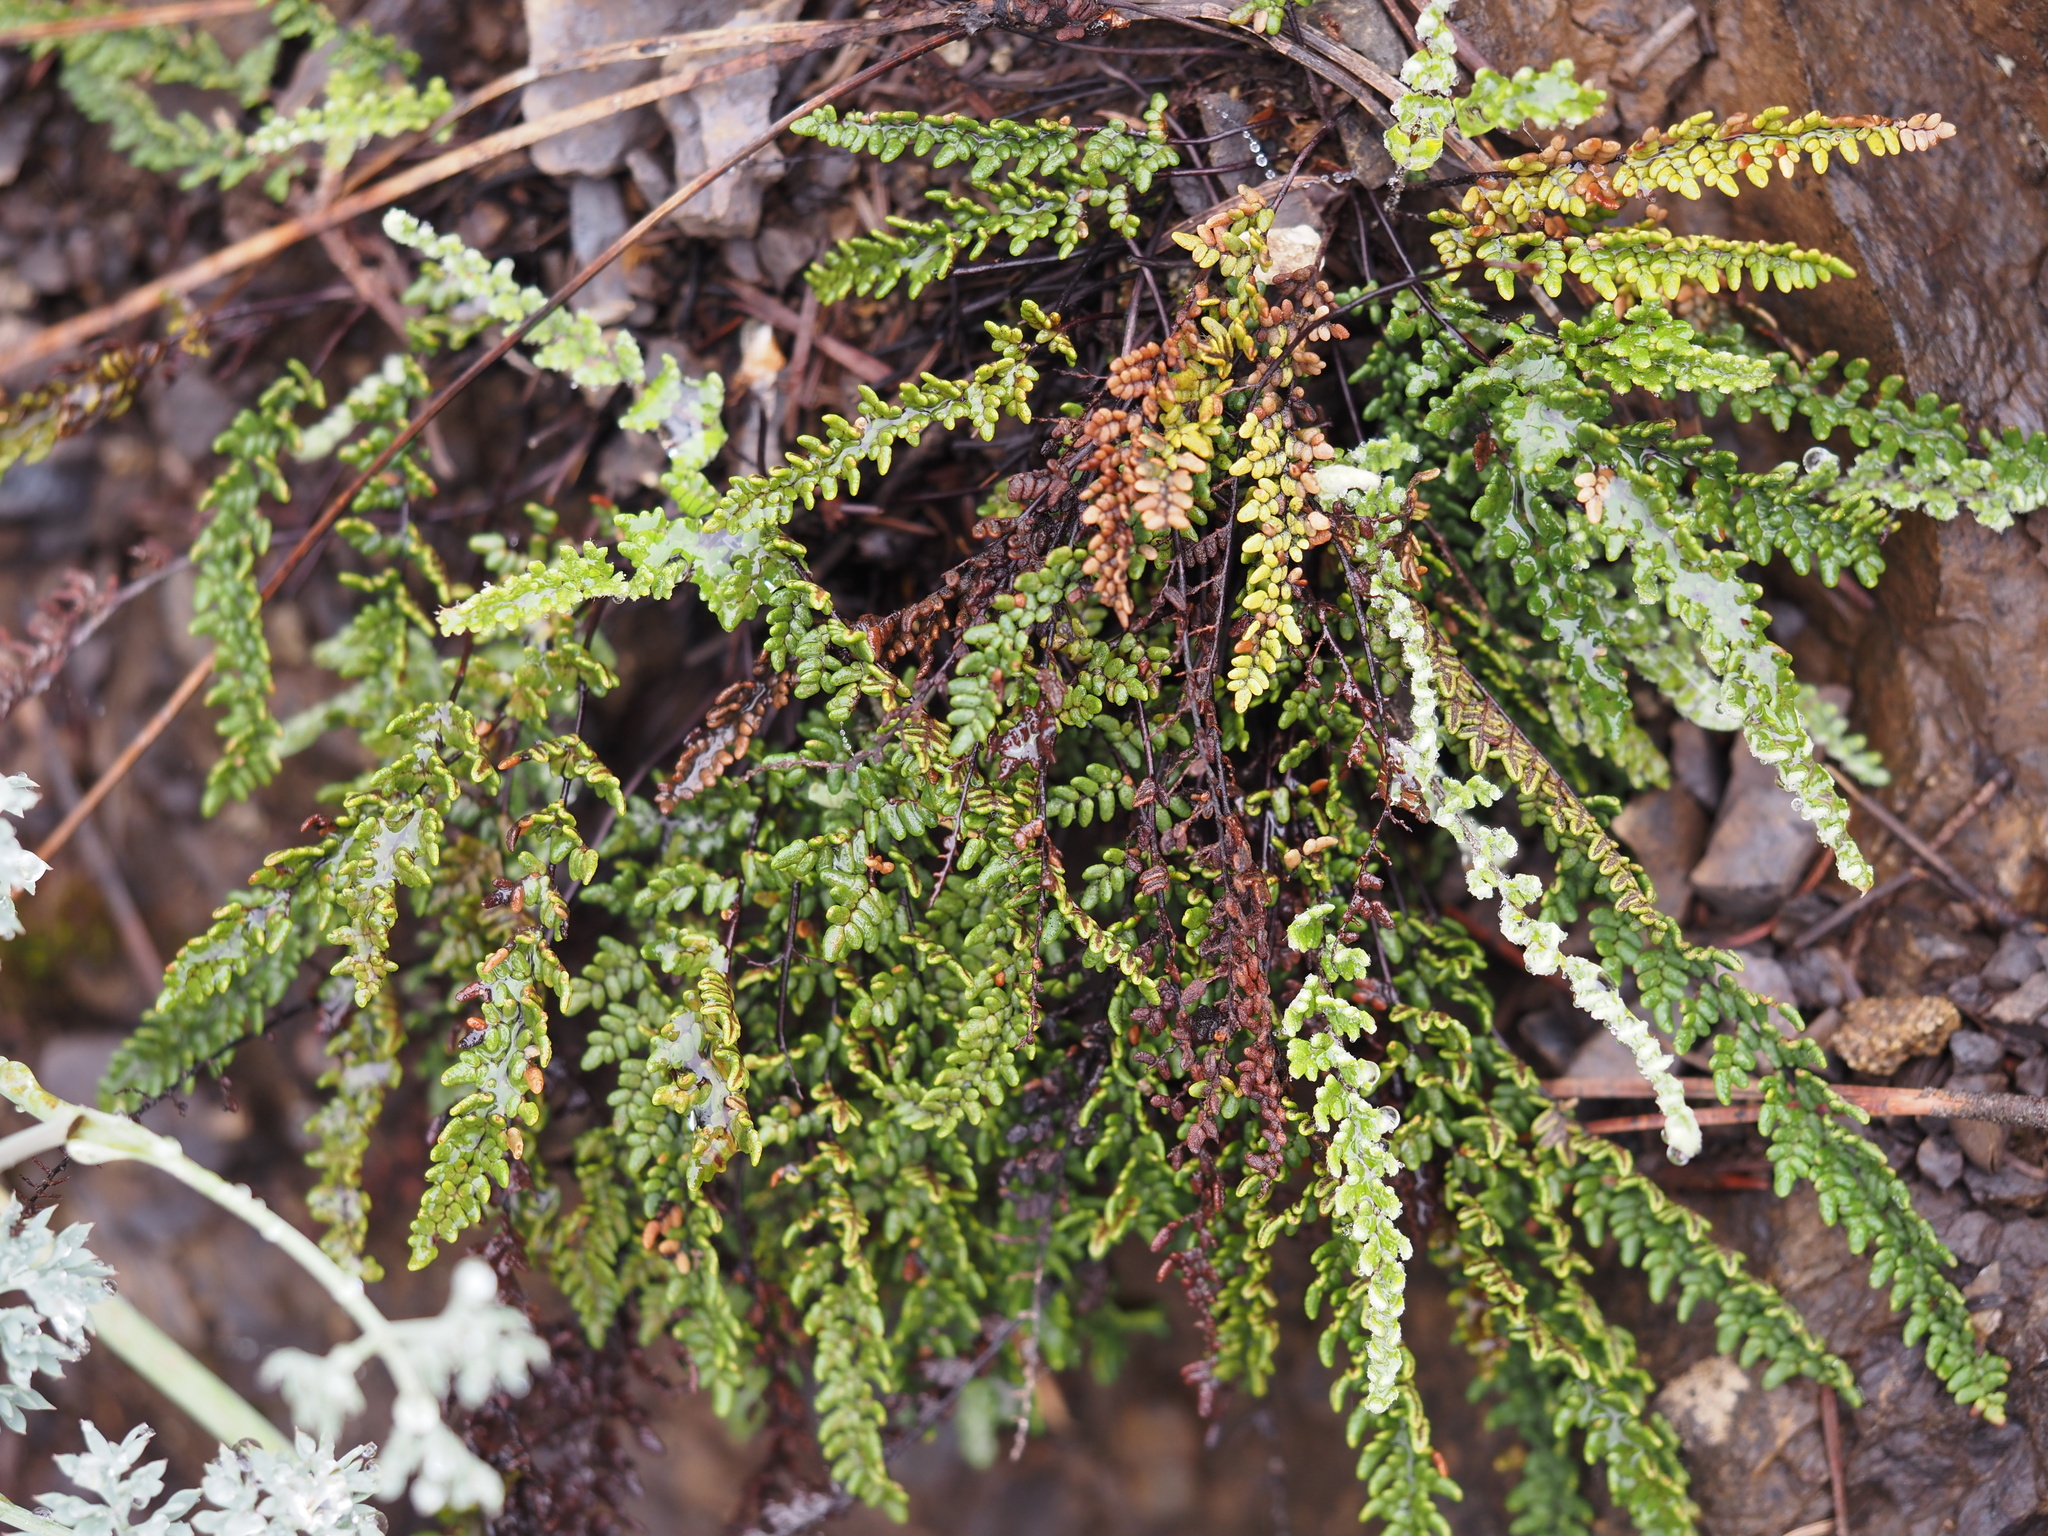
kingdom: Plantae
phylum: Tracheophyta
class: Polypodiopsida
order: Polypodiales
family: Pteridaceae
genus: Myriopteris
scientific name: Myriopteris gracillima
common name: Lace fern
